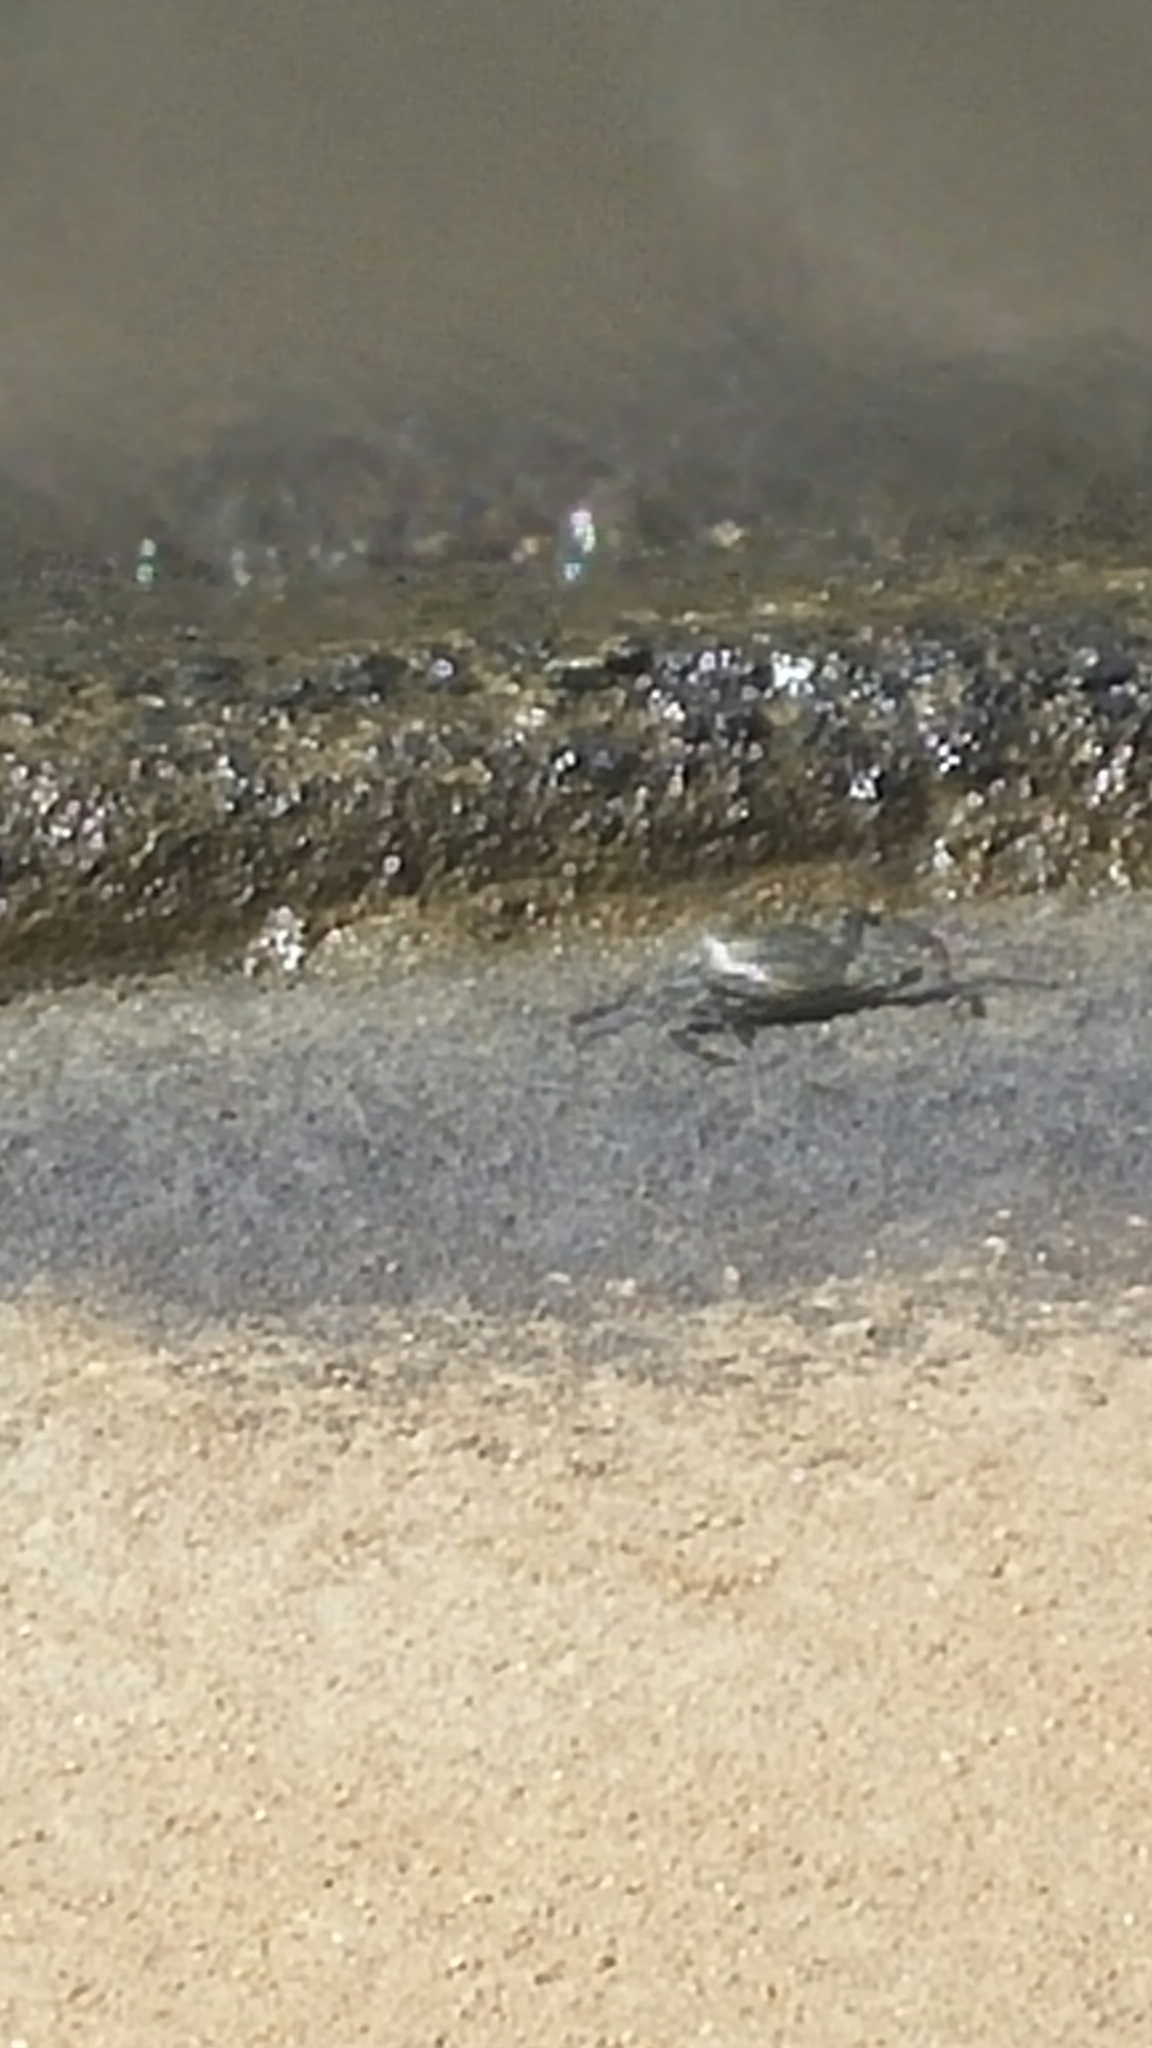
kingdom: Animalia
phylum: Arthropoda
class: Malacostraca
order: Decapoda
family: Grapsidae
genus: Grapsus
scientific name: Grapsus tenuicrustatus
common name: Natal lightfoot crab
